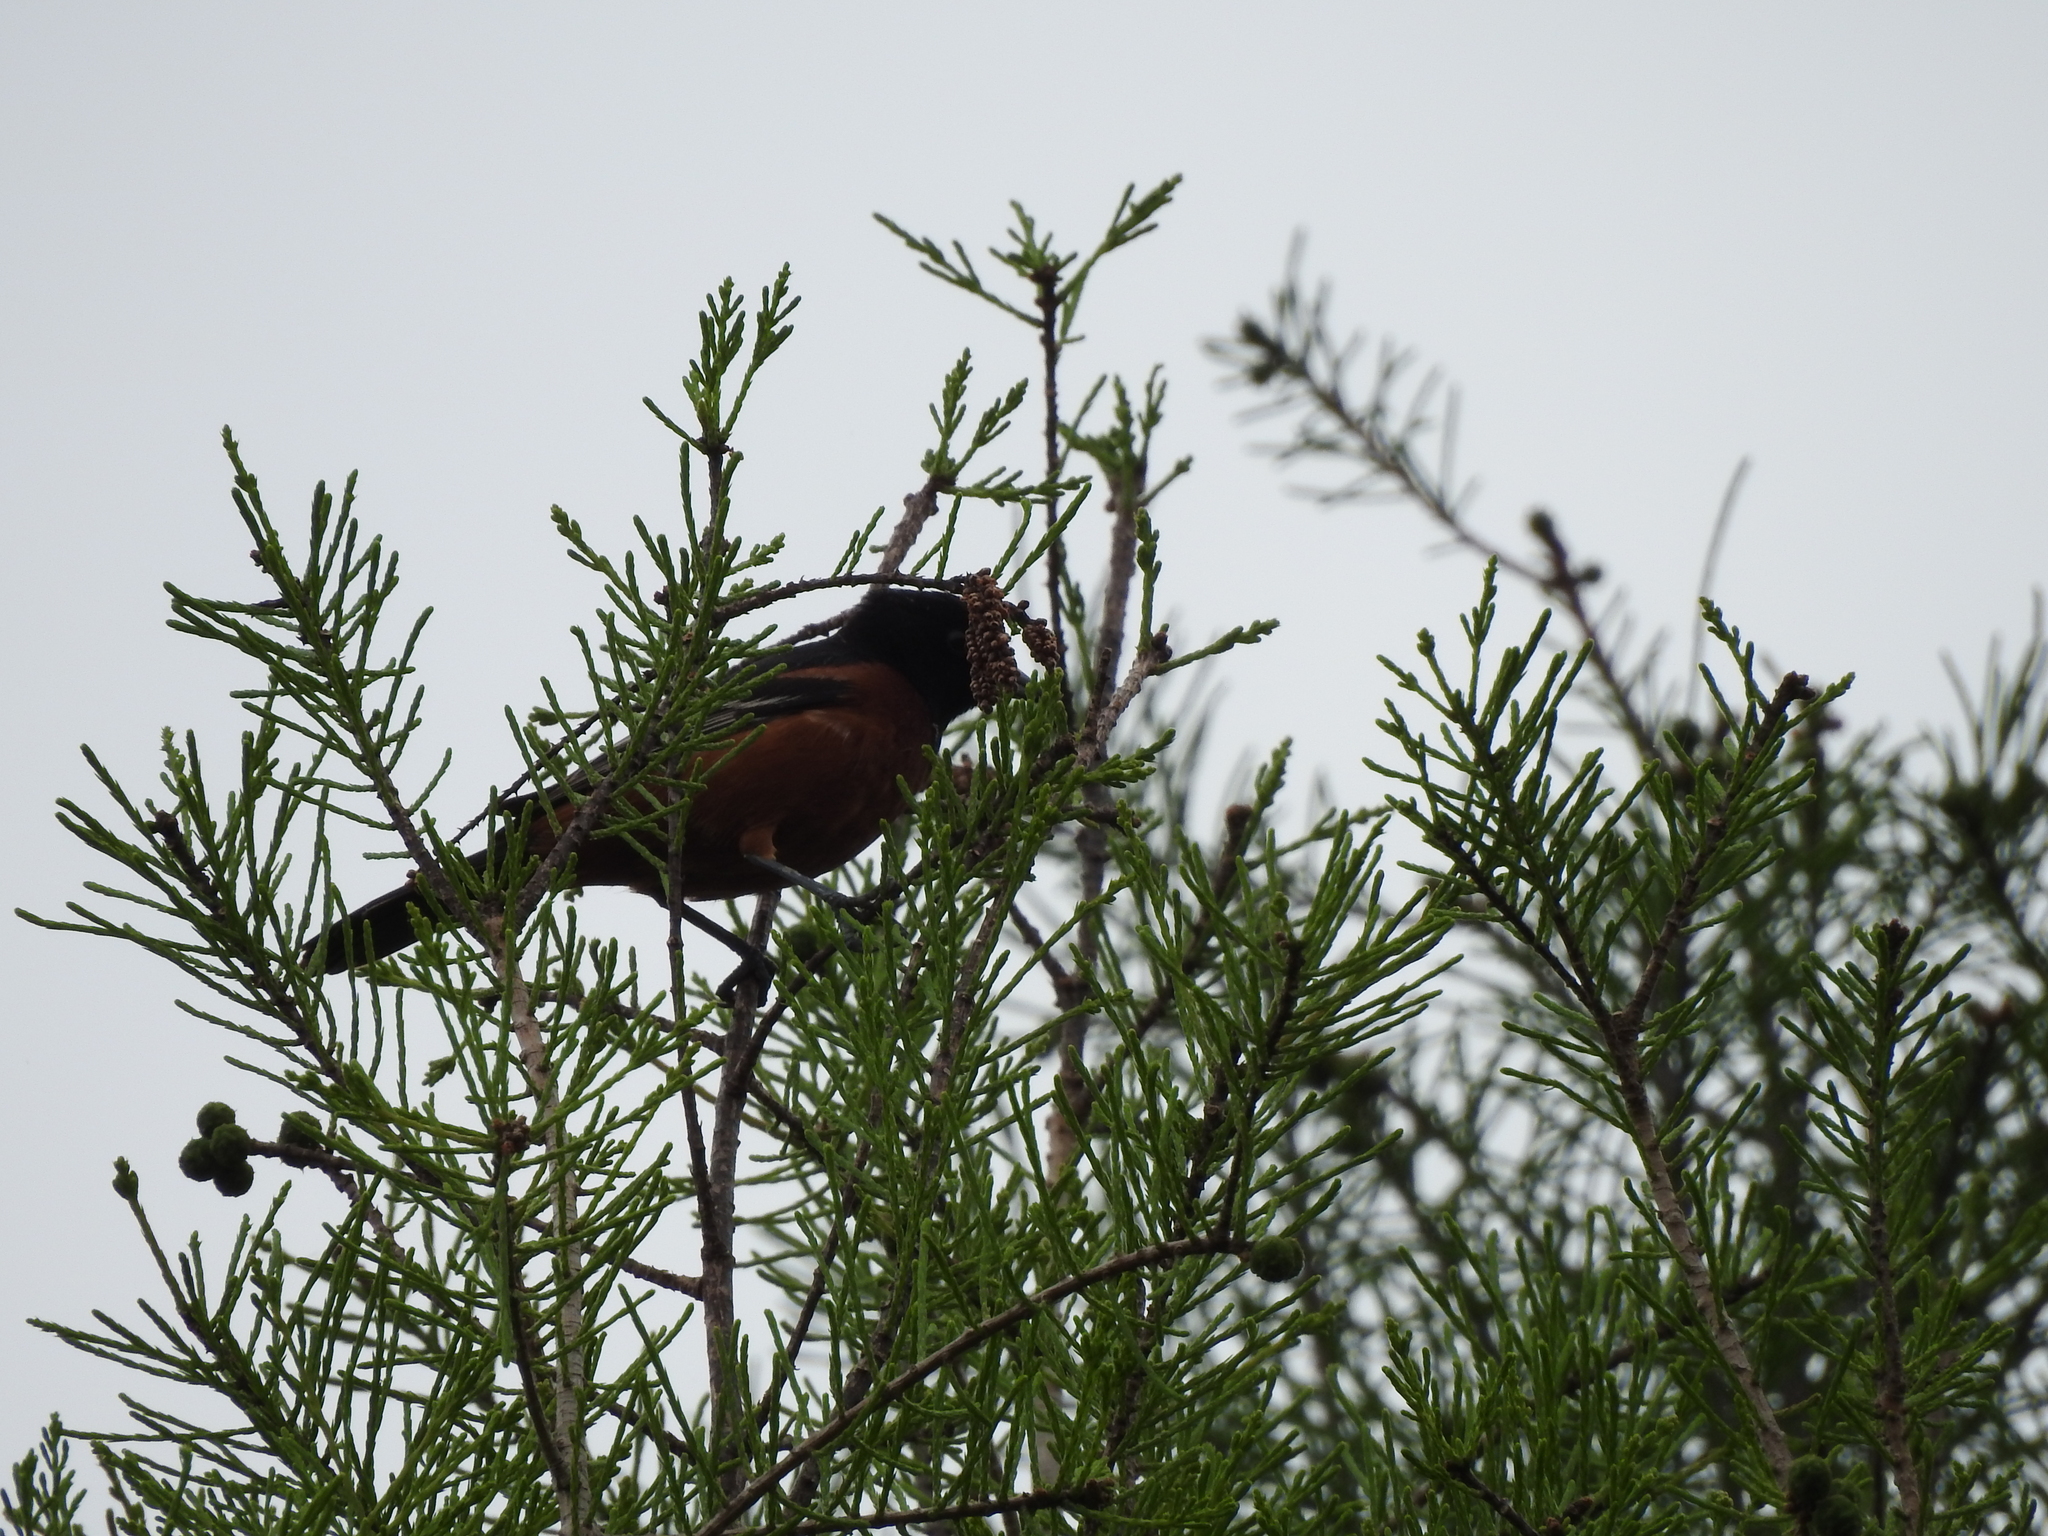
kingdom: Animalia
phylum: Chordata
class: Aves
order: Passeriformes
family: Icteridae
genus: Icterus
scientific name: Icterus spurius
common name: Orchard oriole
